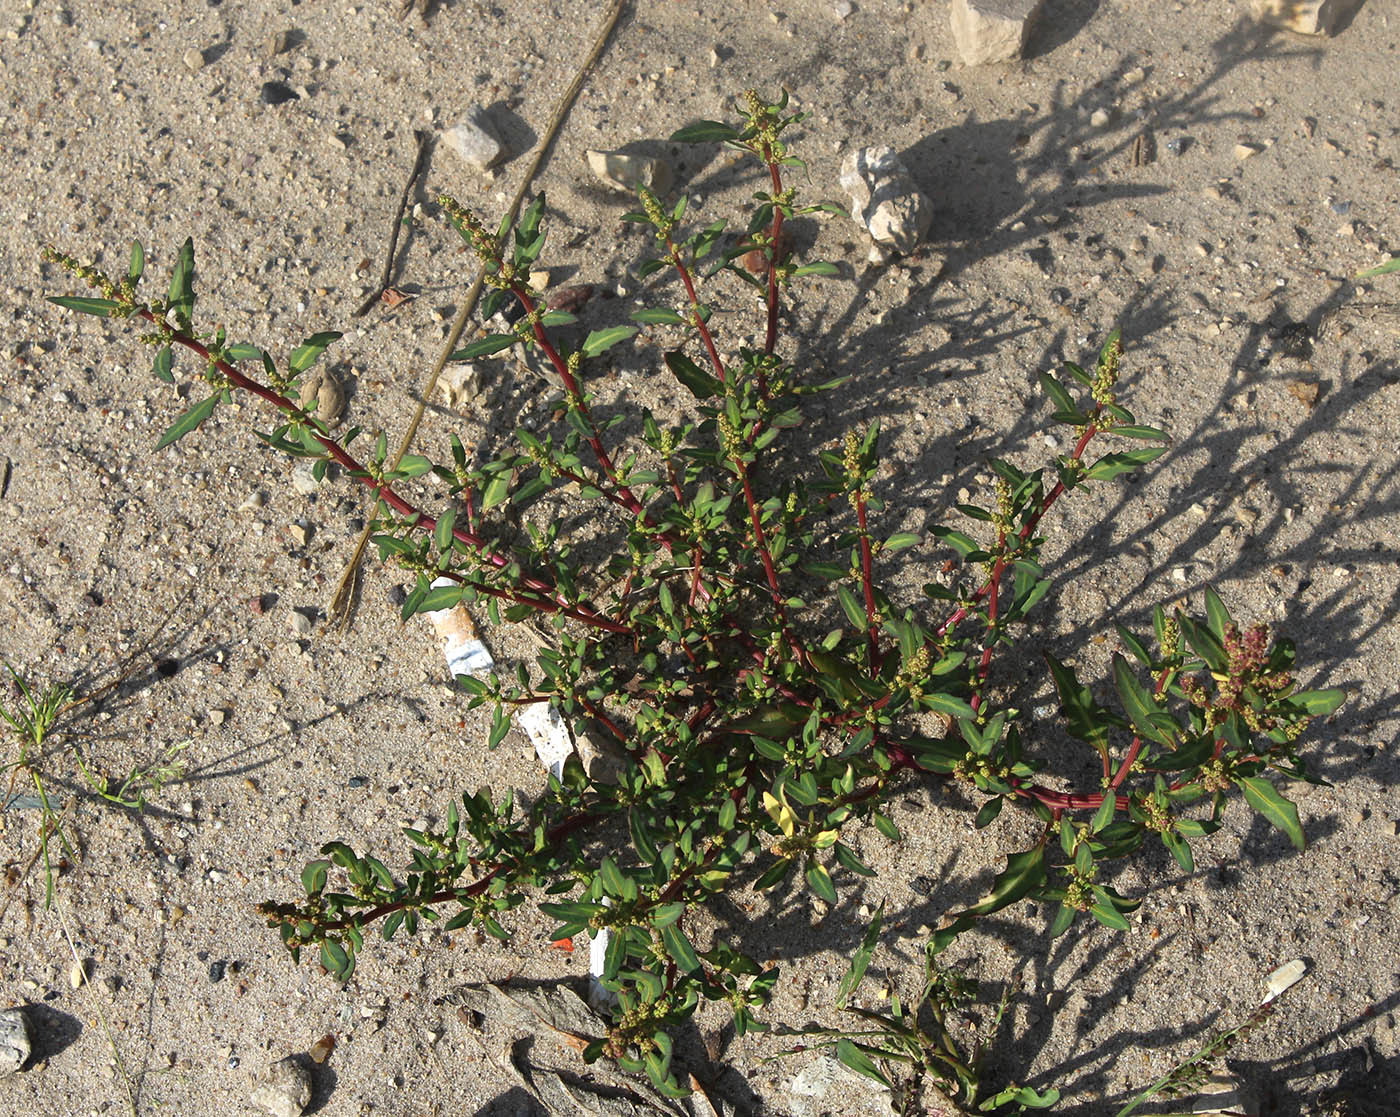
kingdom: Plantae
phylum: Tracheophyta
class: Magnoliopsida
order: Caryophyllales
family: Amaranthaceae
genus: Oxybasis
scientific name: Oxybasis glauca
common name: Glaucous goosefoot
